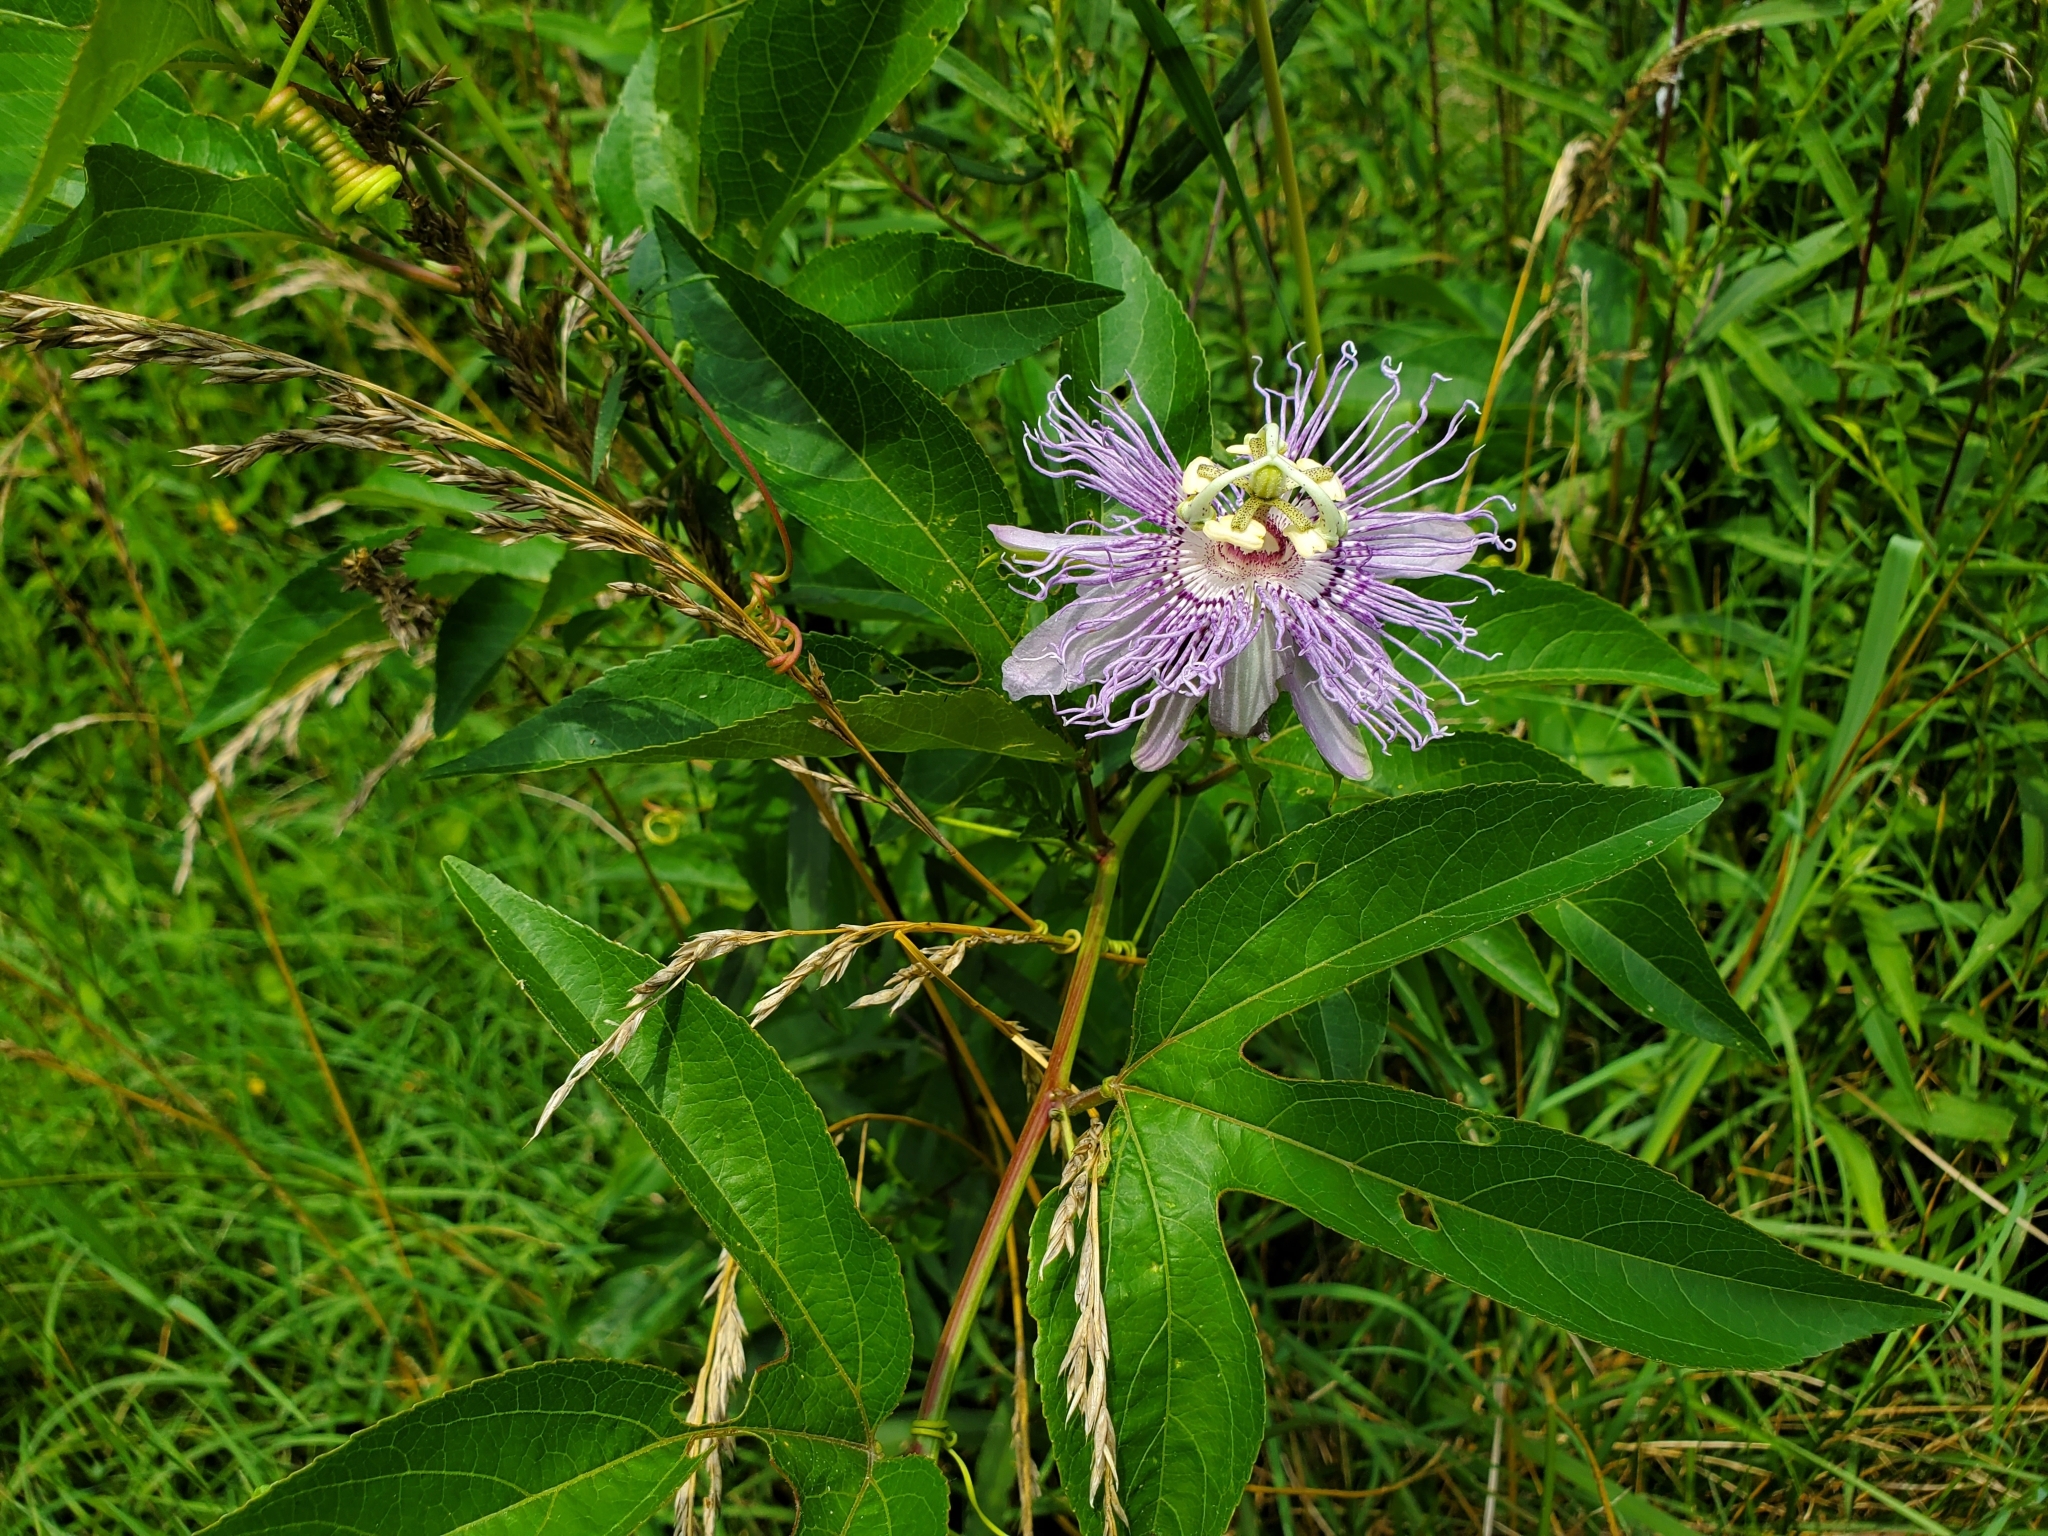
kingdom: Plantae
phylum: Tracheophyta
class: Magnoliopsida
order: Malpighiales
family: Passifloraceae
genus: Passiflora
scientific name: Passiflora incarnata
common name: Apricot-vine
